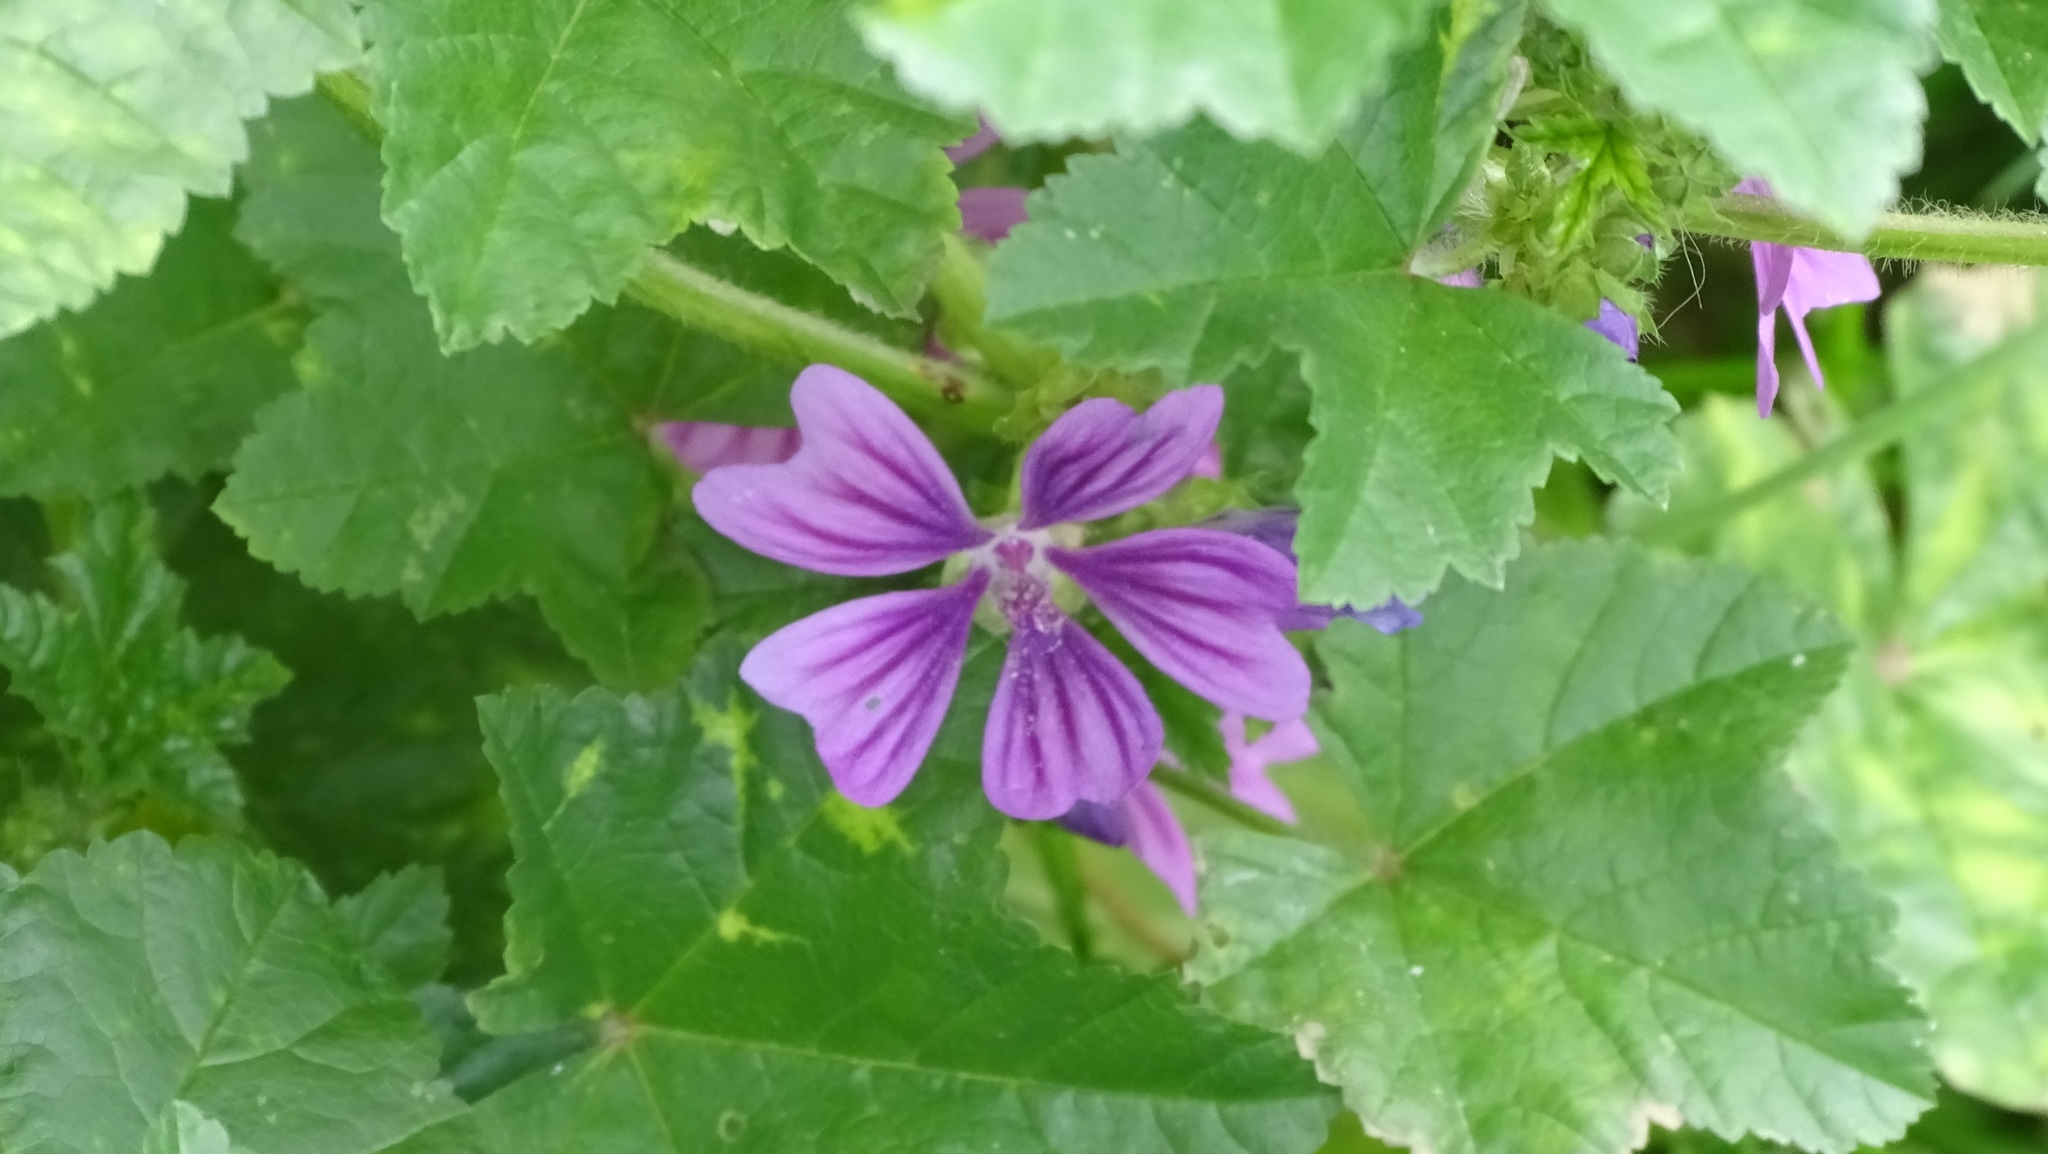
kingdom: Plantae
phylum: Tracheophyta
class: Magnoliopsida
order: Malvales
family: Malvaceae
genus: Malva
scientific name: Malva sylvestris
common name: Common mallow
